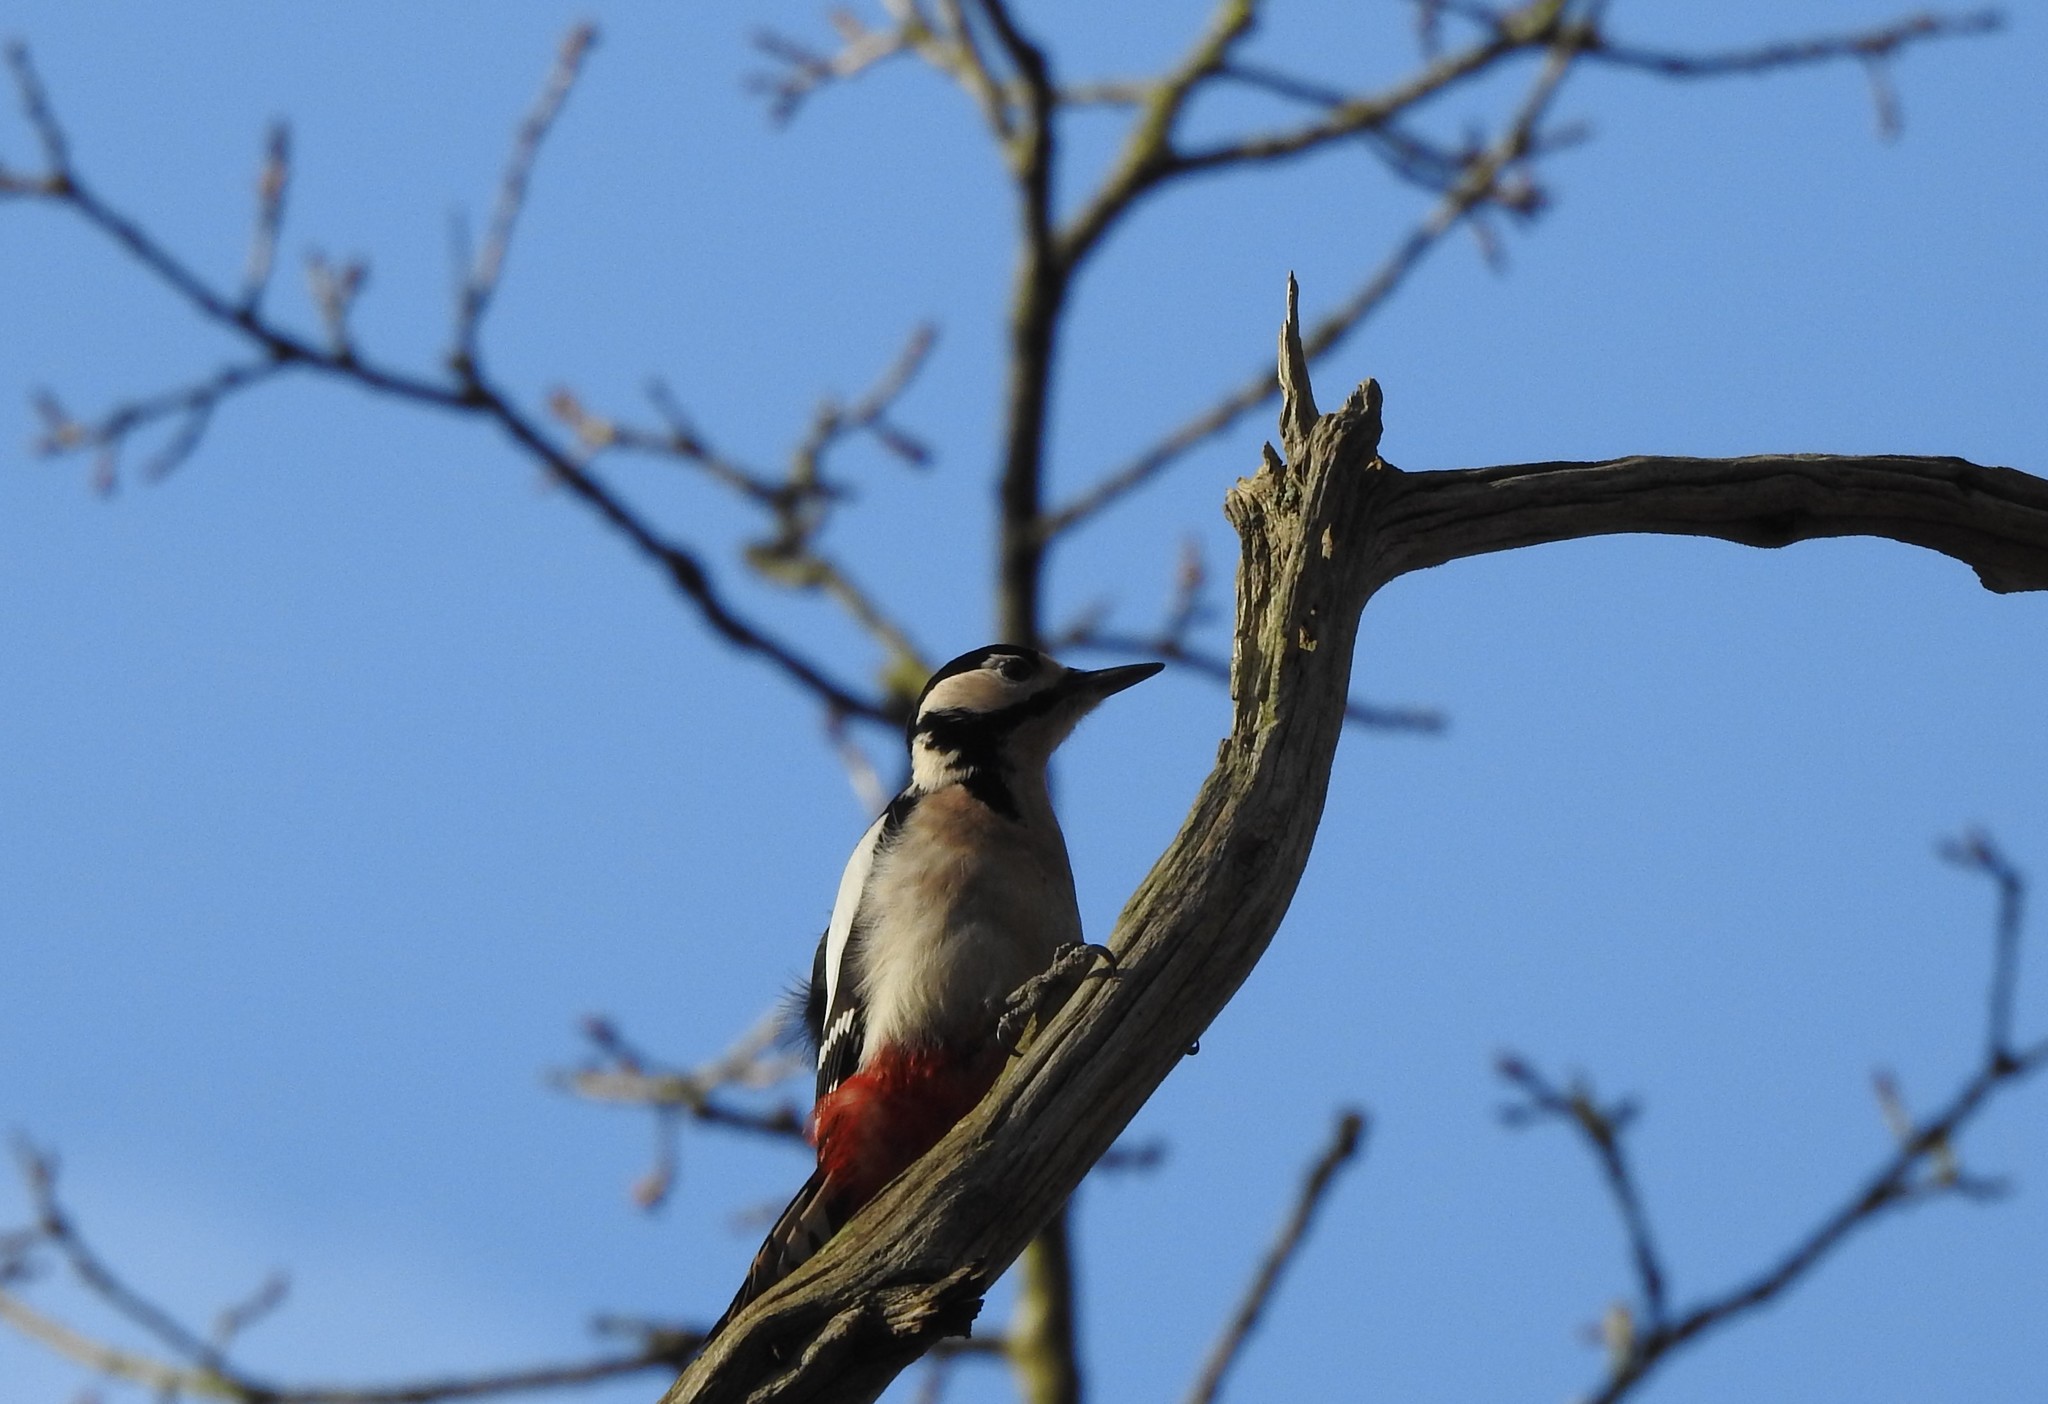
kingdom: Animalia
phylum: Chordata
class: Aves
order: Piciformes
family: Picidae
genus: Dendrocopos
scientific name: Dendrocopos major
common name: Great spotted woodpecker
